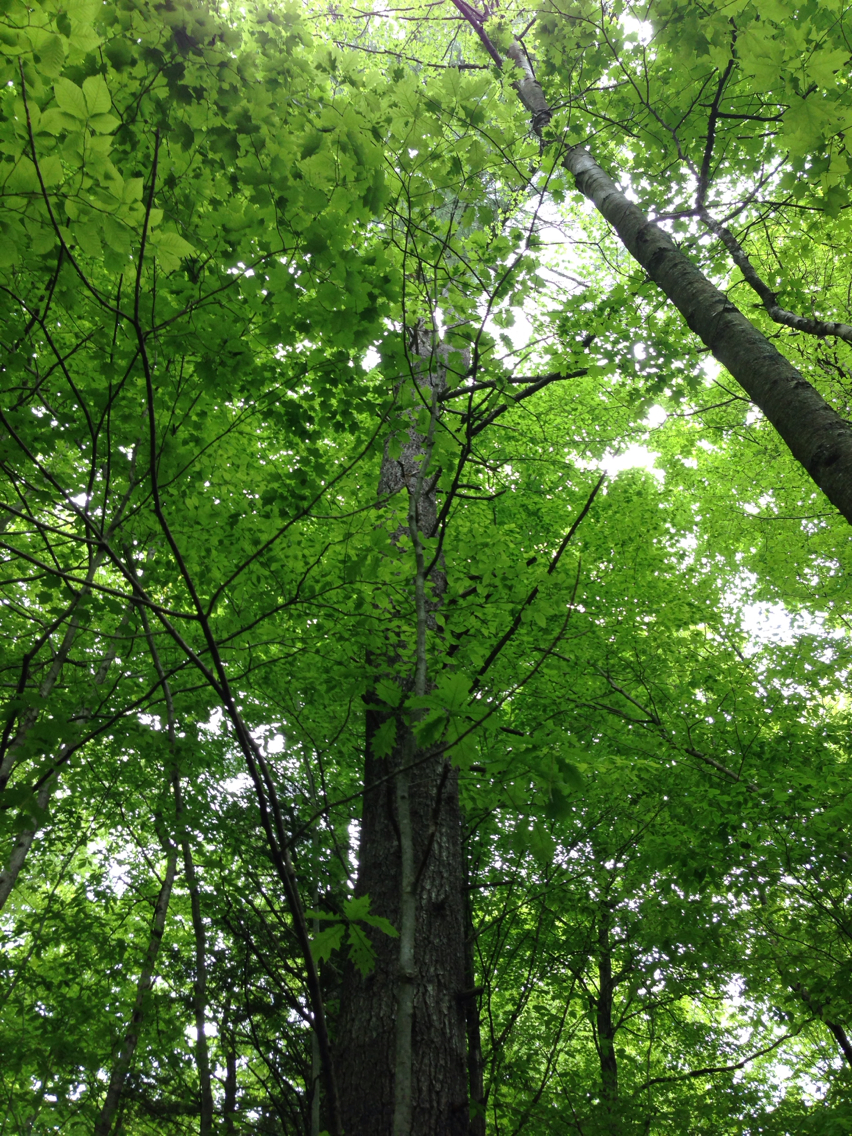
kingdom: Plantae
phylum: Tracheophyta
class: Pinopsida
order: Pinales
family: Pinaceae
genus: Pinus
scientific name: Pinus strobus
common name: Weymouth pine
